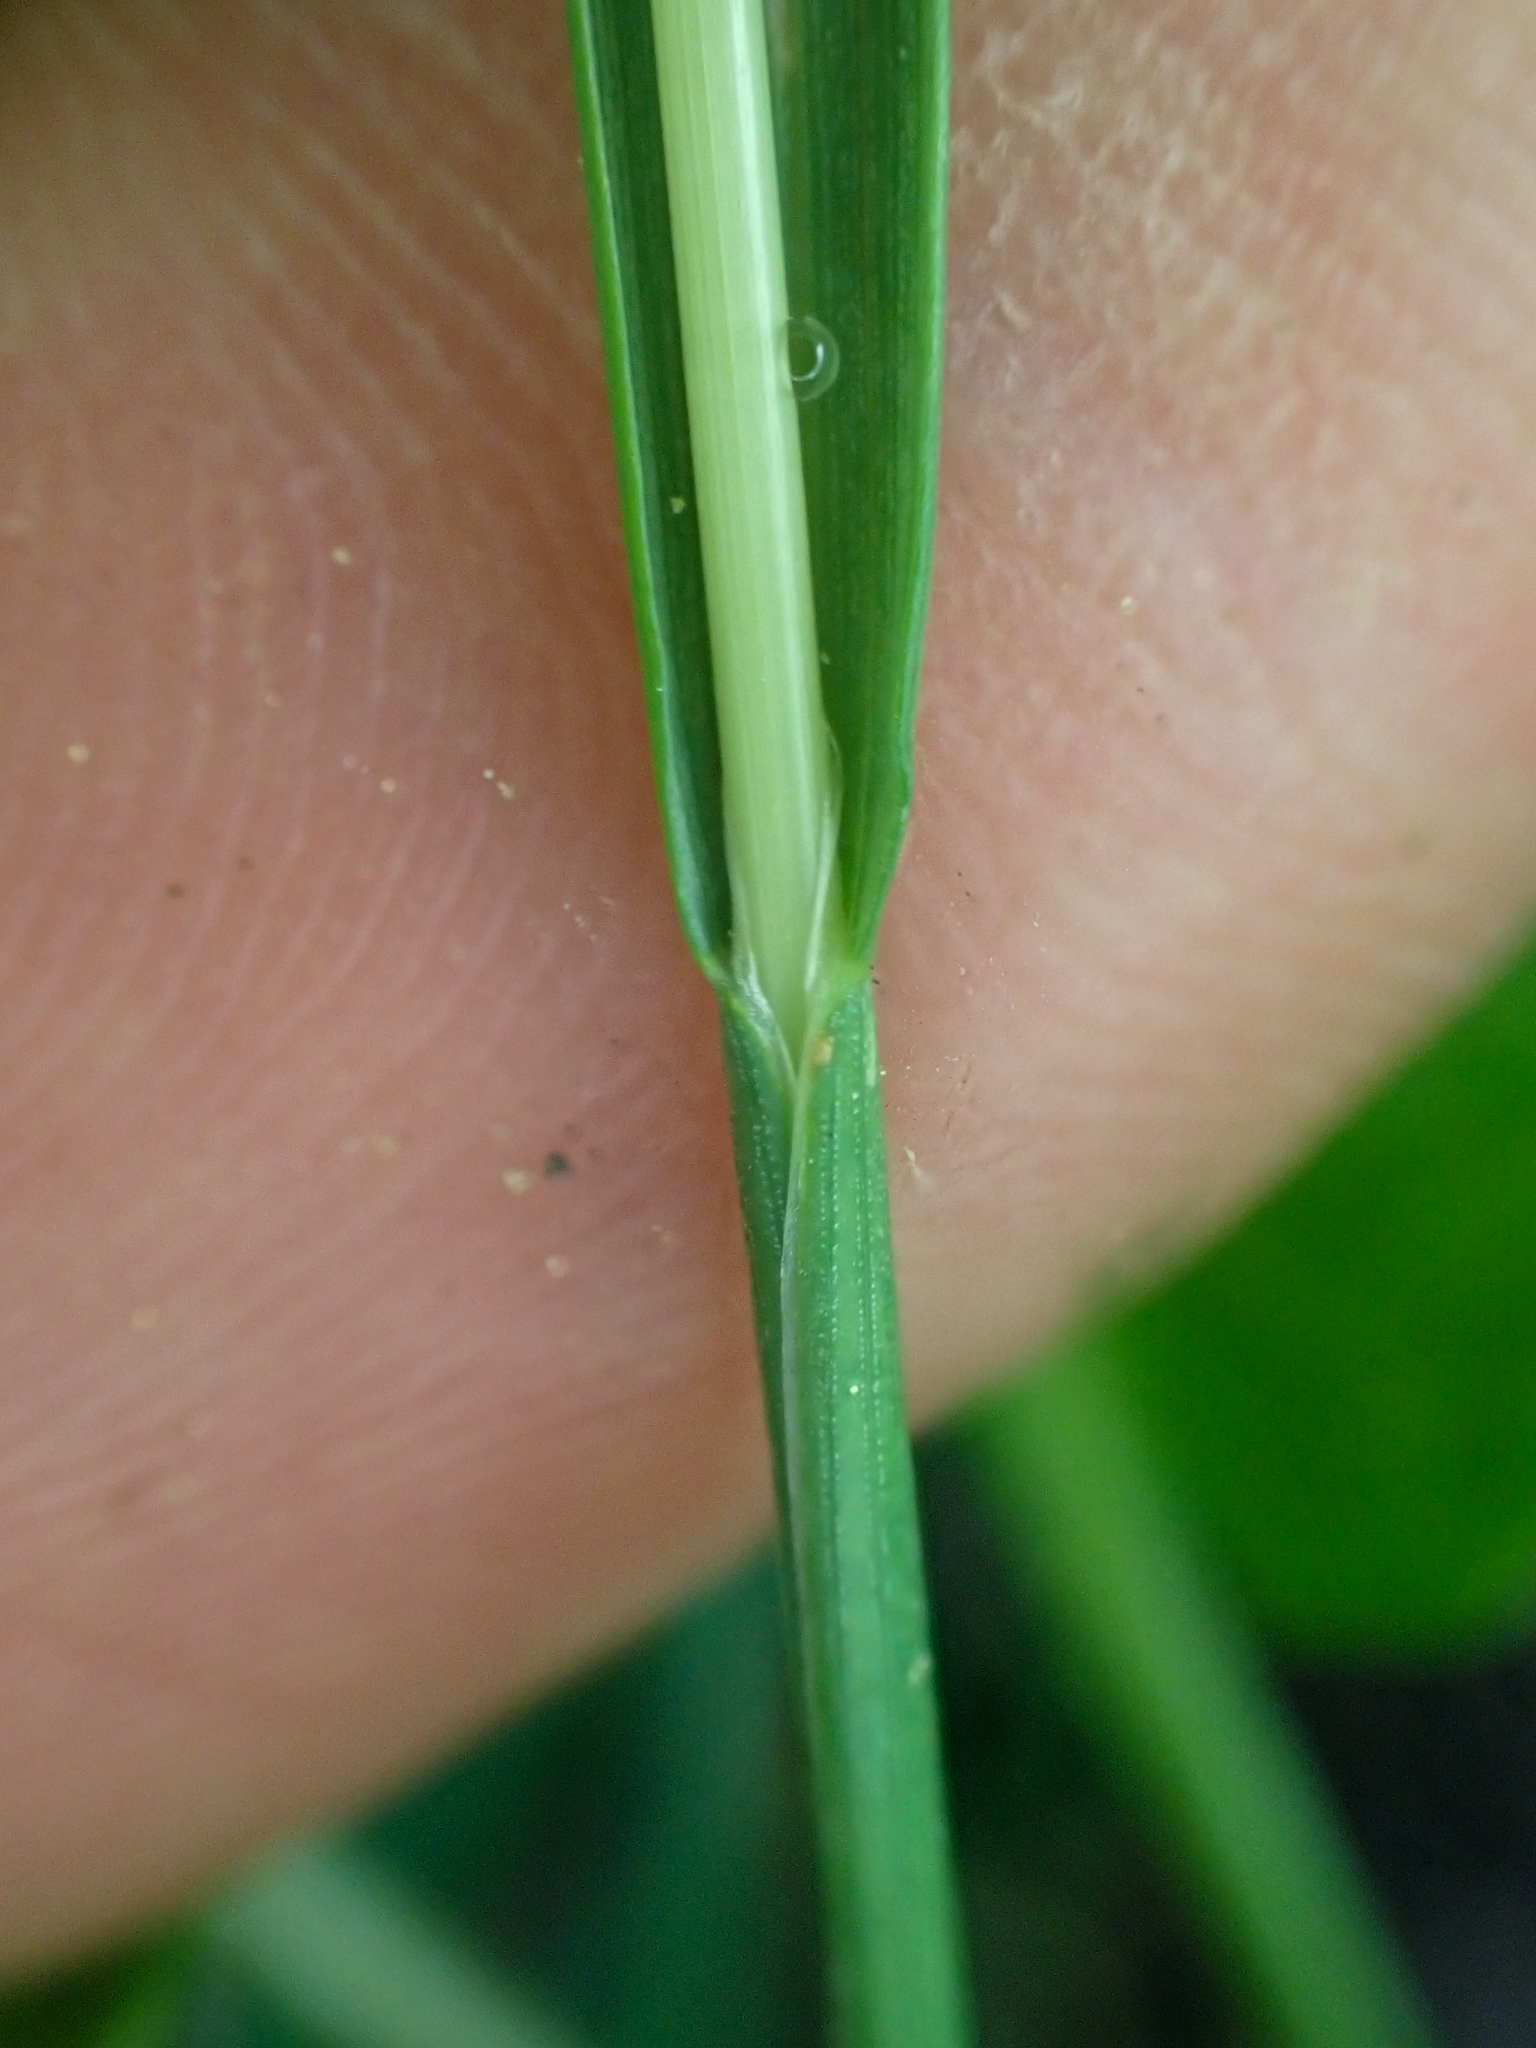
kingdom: Plantae
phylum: Tracheophyta
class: Liliopsida
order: Poales
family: Poaceae
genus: Poa
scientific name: Poa cusickii
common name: Cusick's bluegrass
